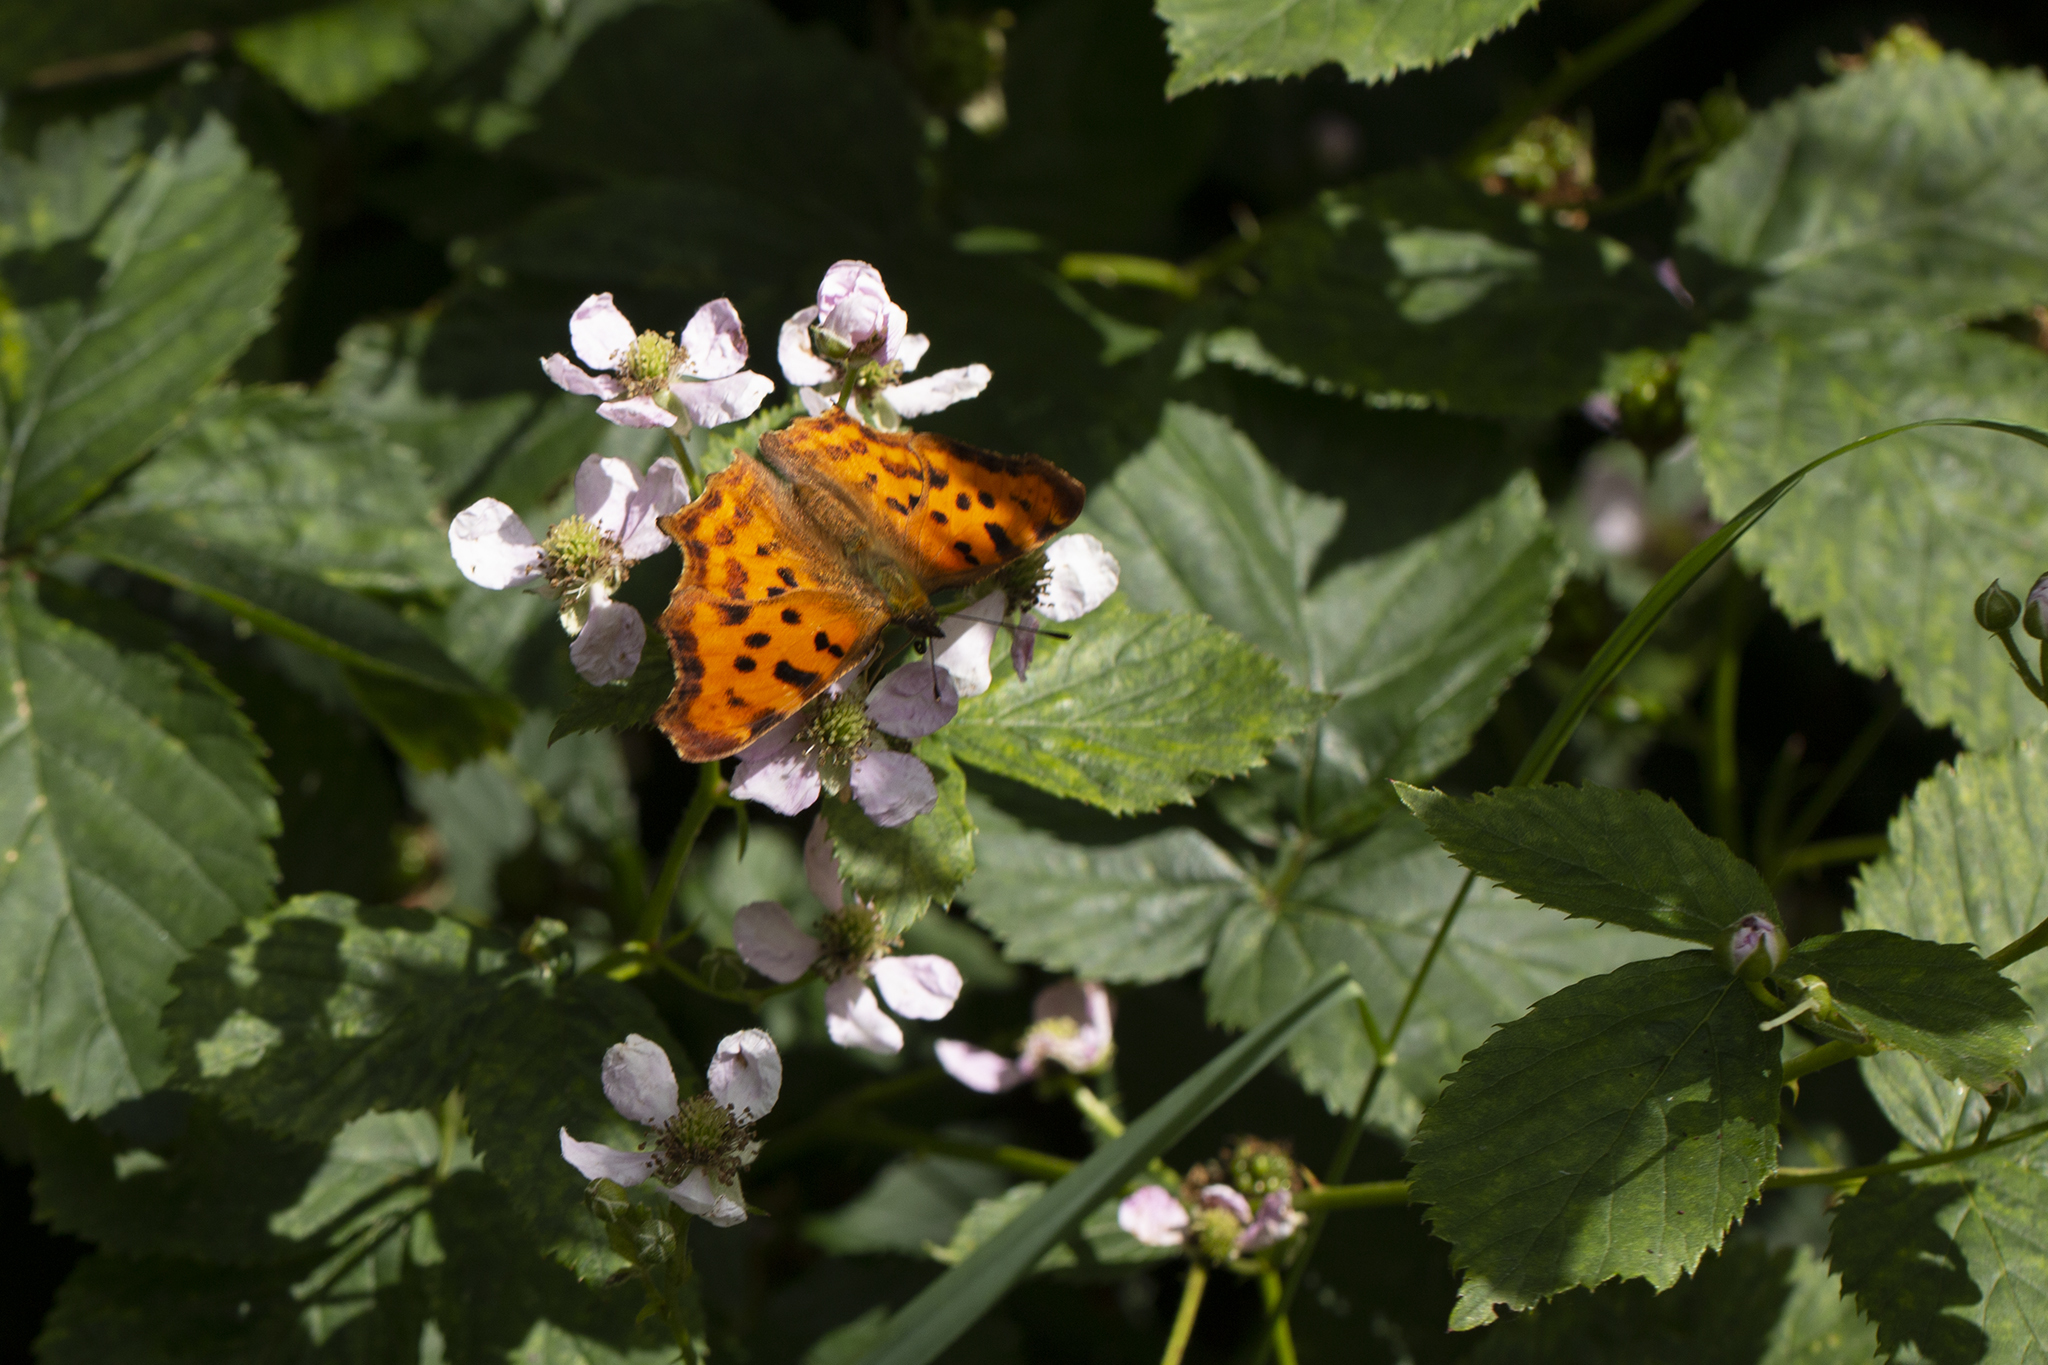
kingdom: Animalia
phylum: Arthropoda
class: Insecta
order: Lepidoptera
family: Nymphalidae
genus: Polygonia
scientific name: Polygonia c-album
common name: Comma
